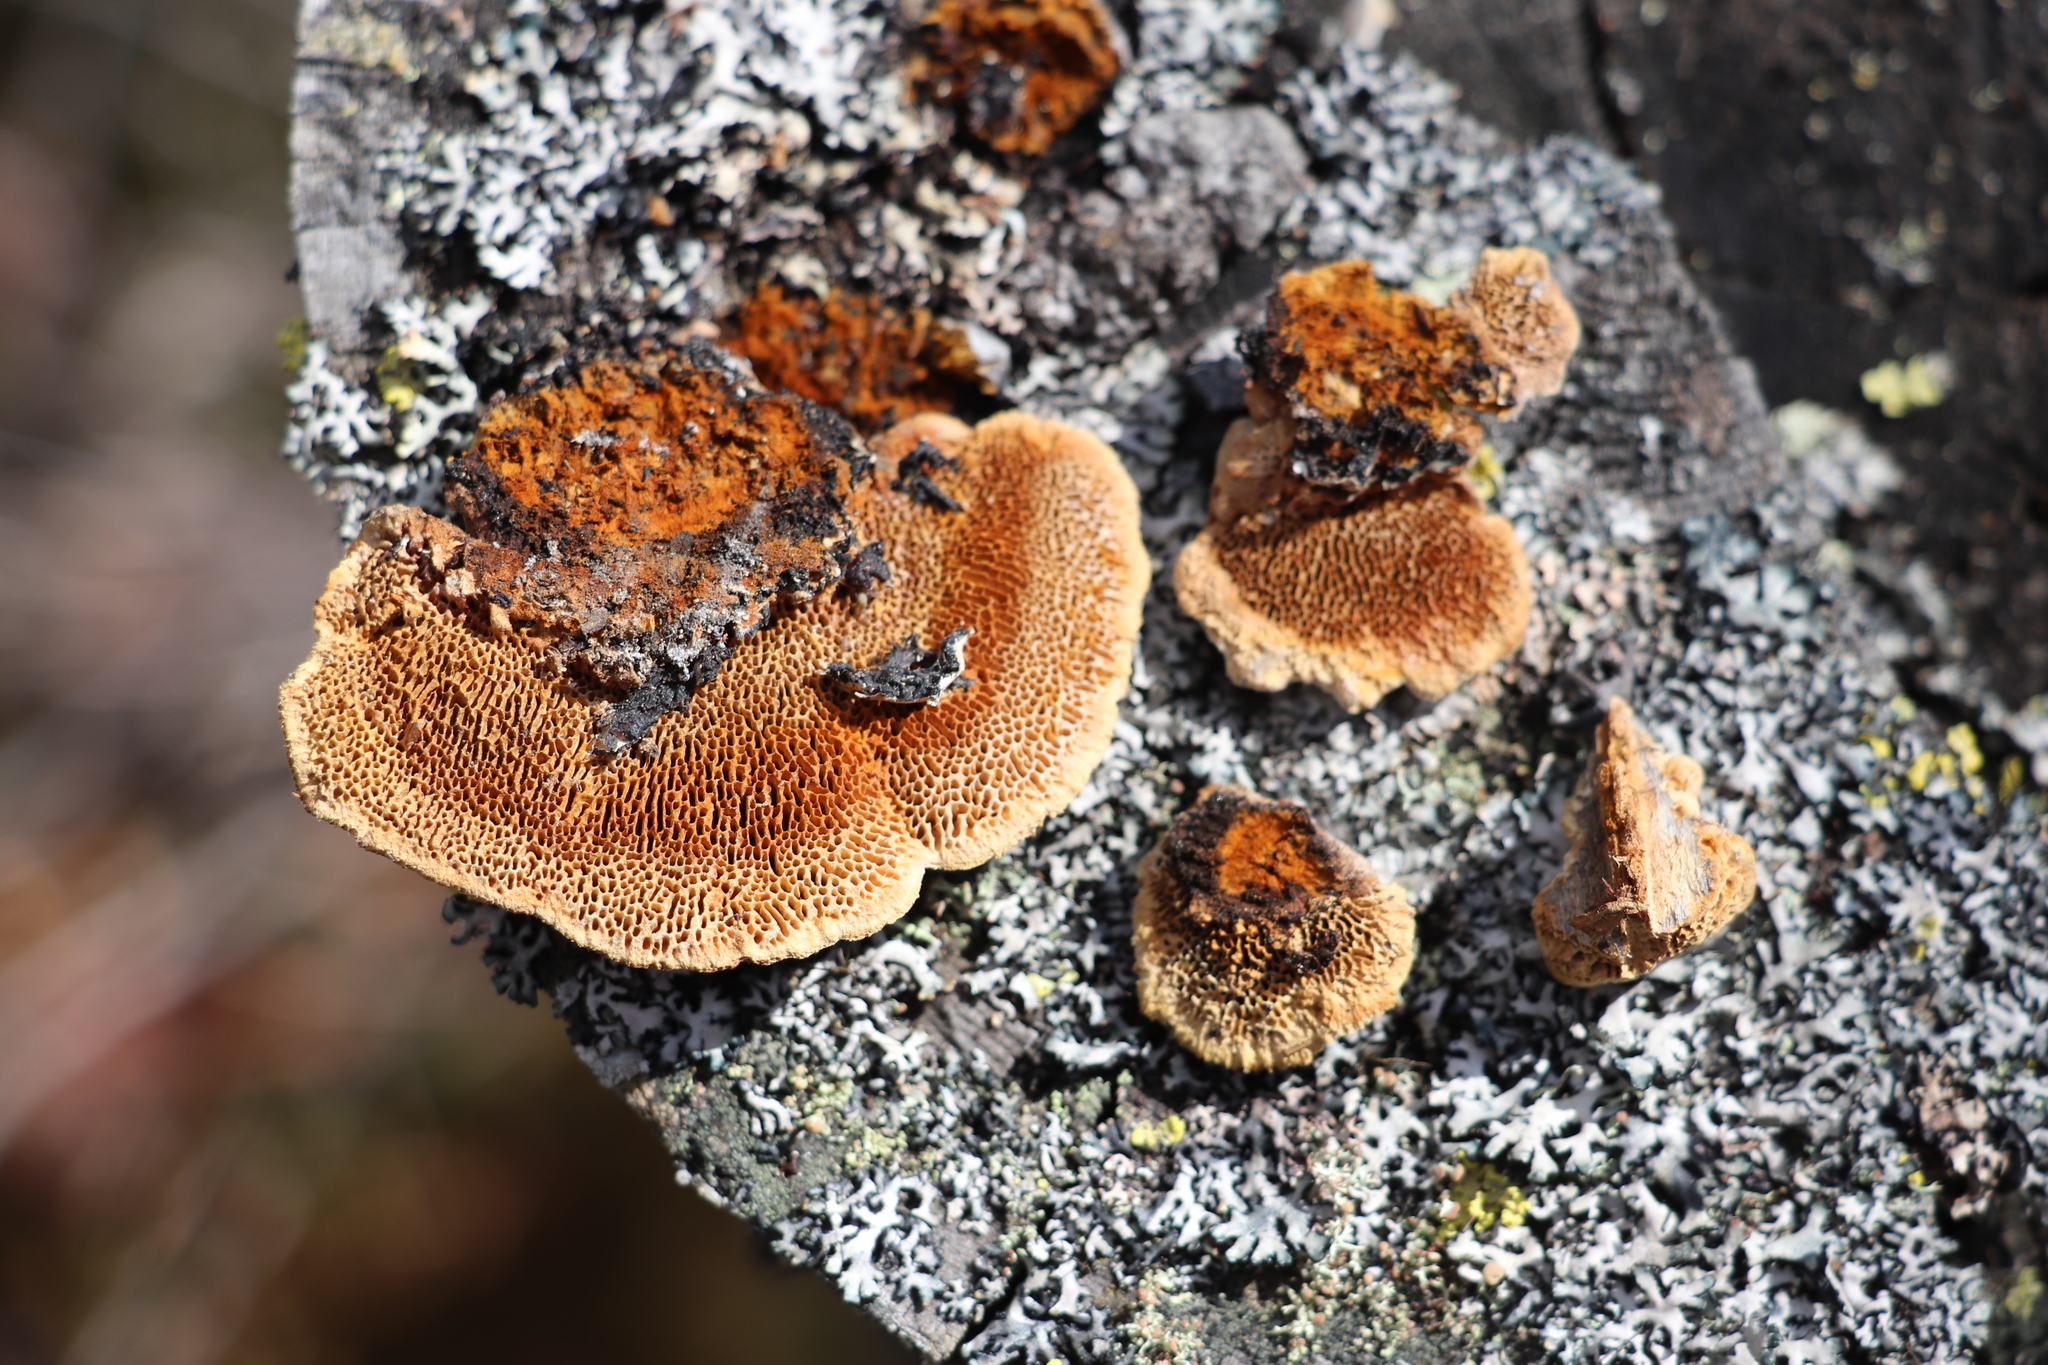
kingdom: Fungi
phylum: Basidiomycota
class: Agaricomycetes
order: Gloeophyllales
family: Gloeophyllaceae
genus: Gloeophyllum
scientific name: Gloeophyllum protractum
